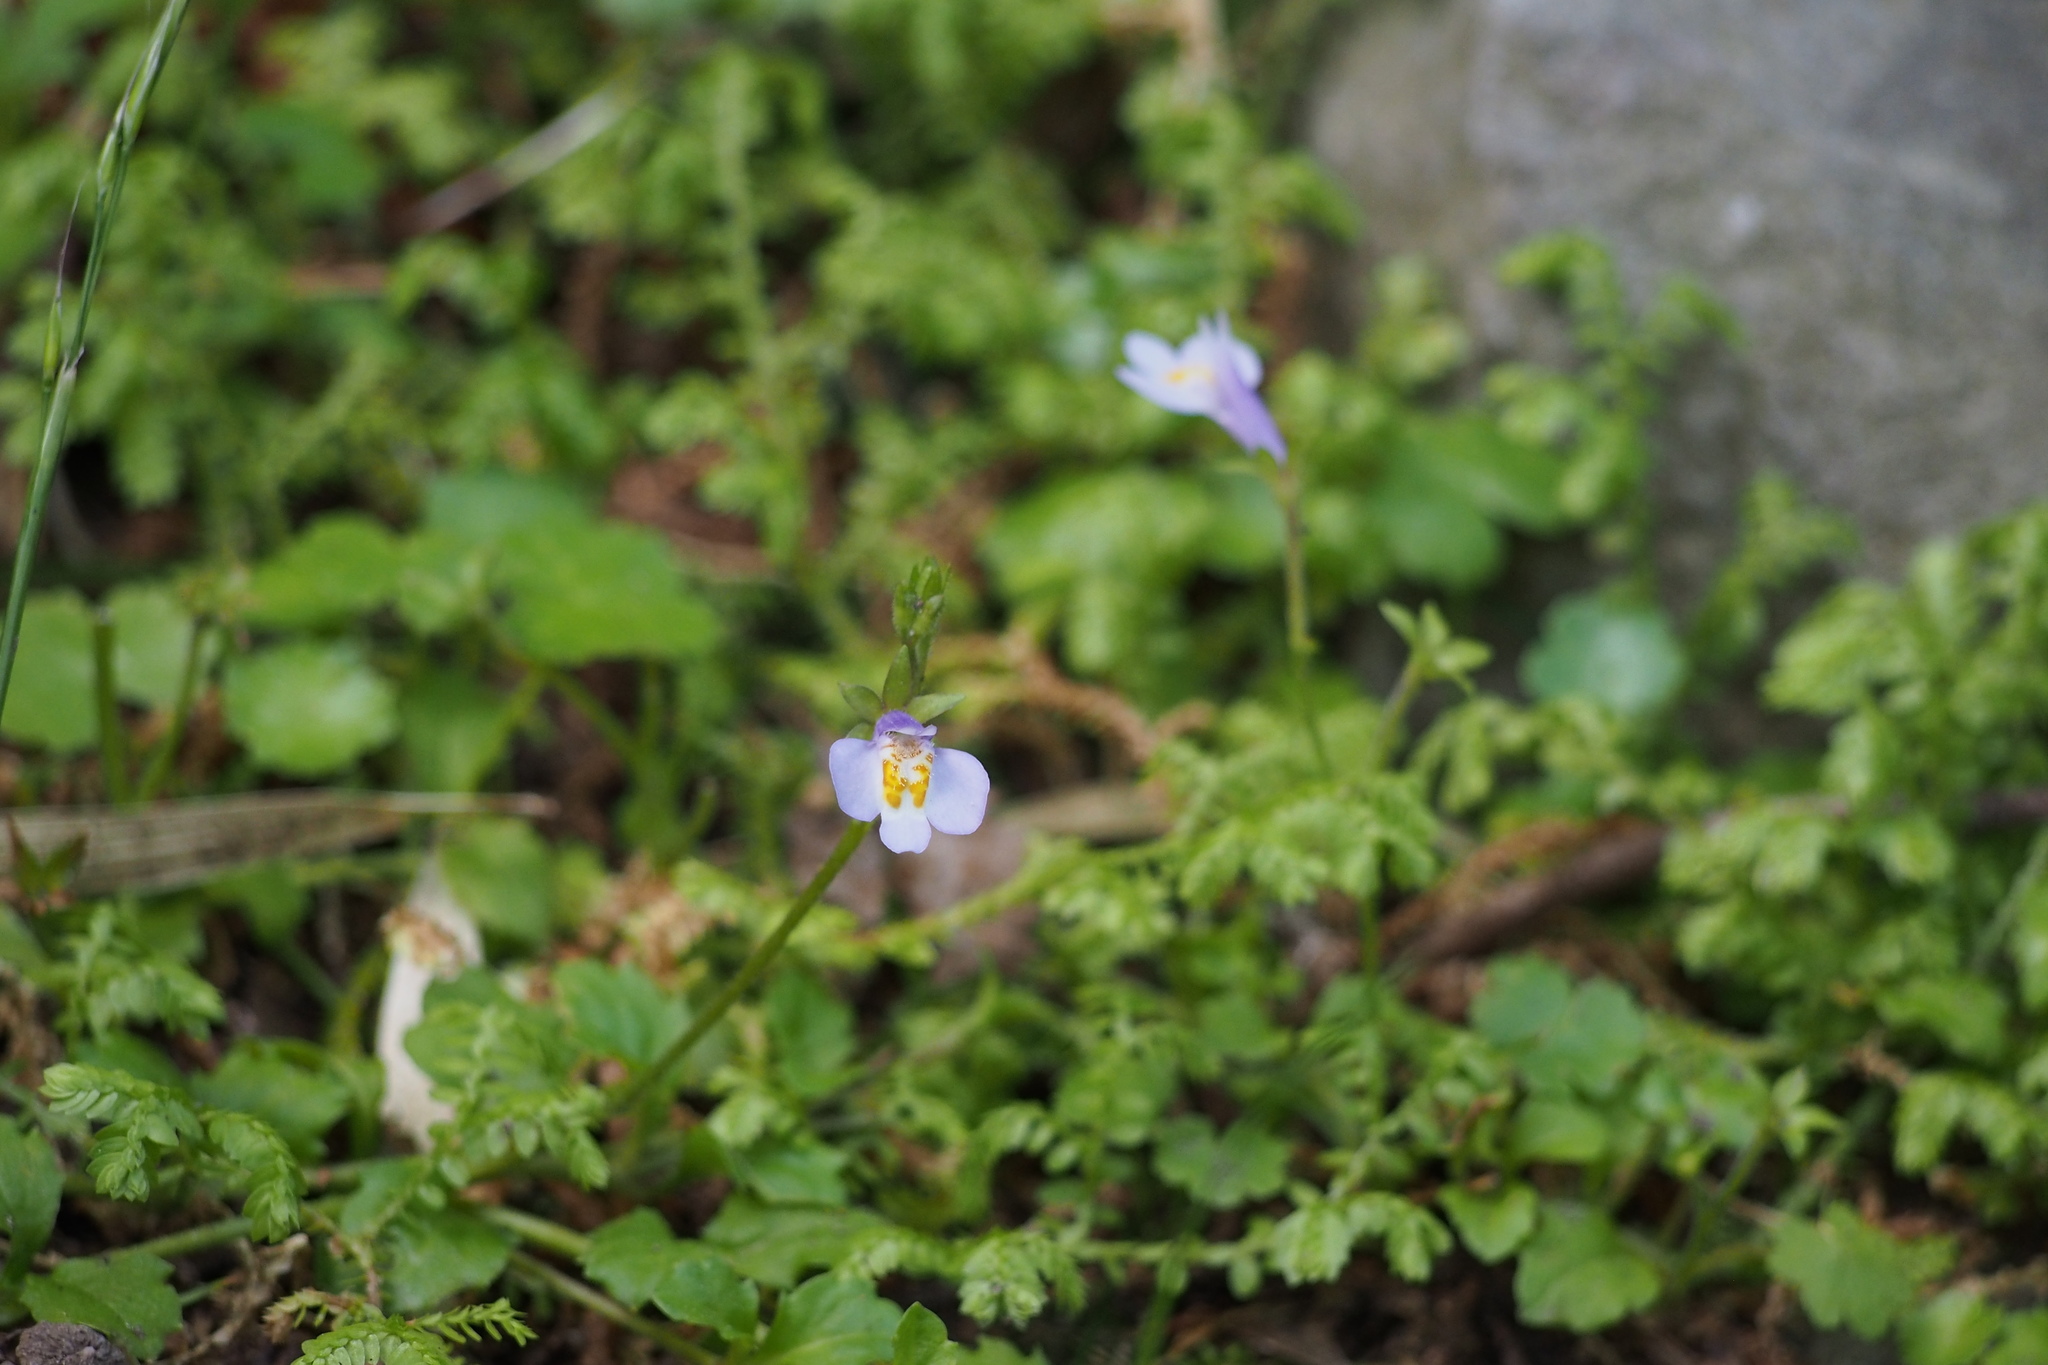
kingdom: Plantae
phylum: Tracheophyta
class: Magnoliopsida
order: Lamiales
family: Mazaceae
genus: Mazus
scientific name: Mazus pumilus
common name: Japanese mazus
